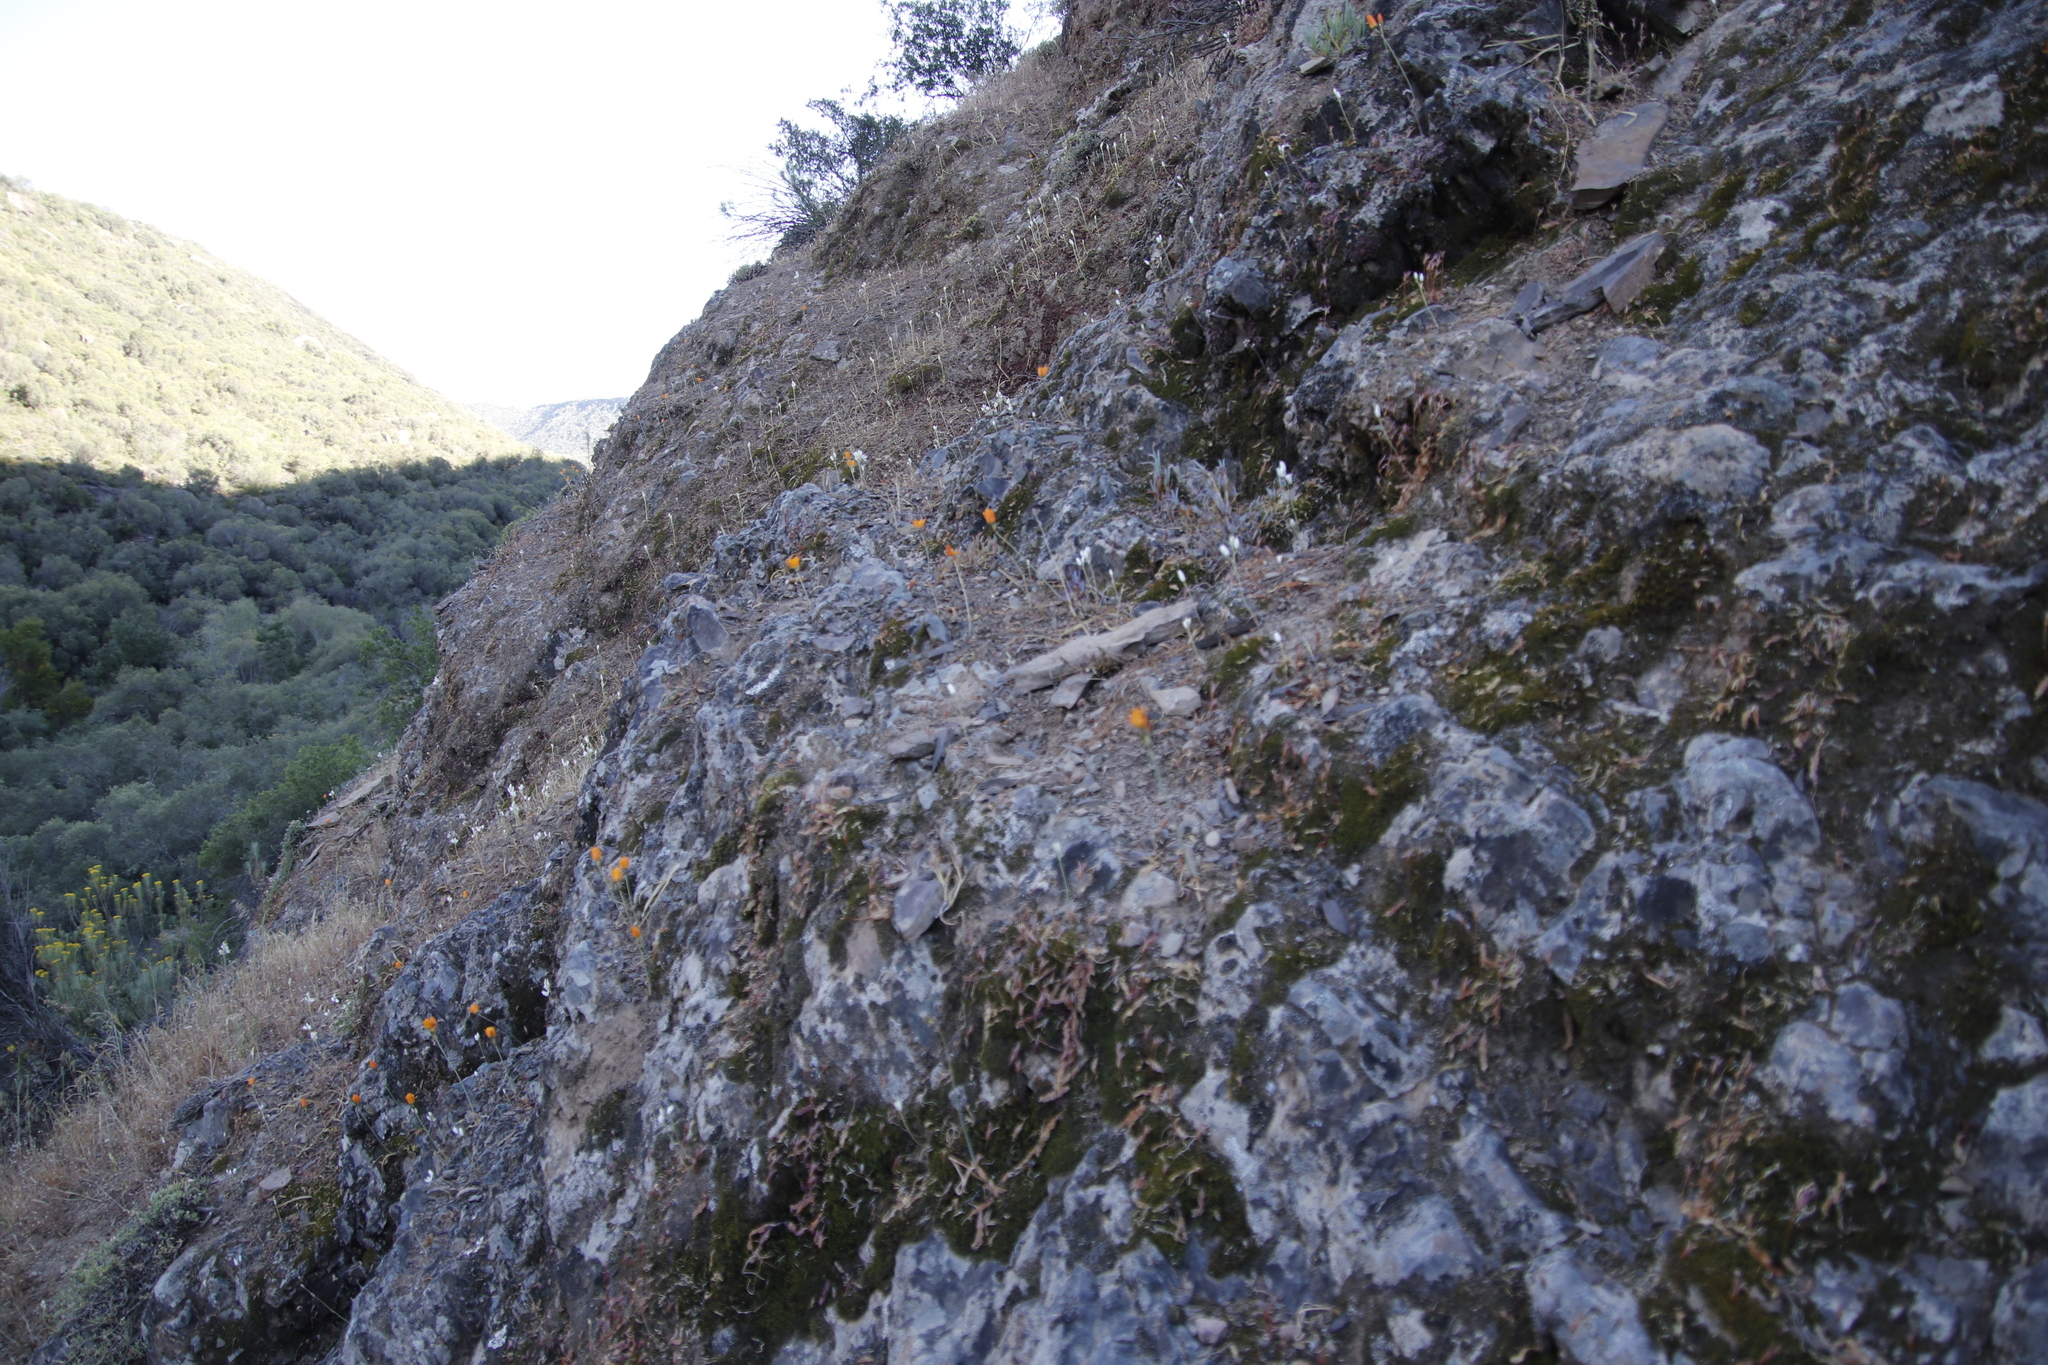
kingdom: Plantae
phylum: Tracheophyta
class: Liliopsida
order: Asparagales
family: Tecophilaeaceae
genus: Cyanella
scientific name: Cyanella lutea
